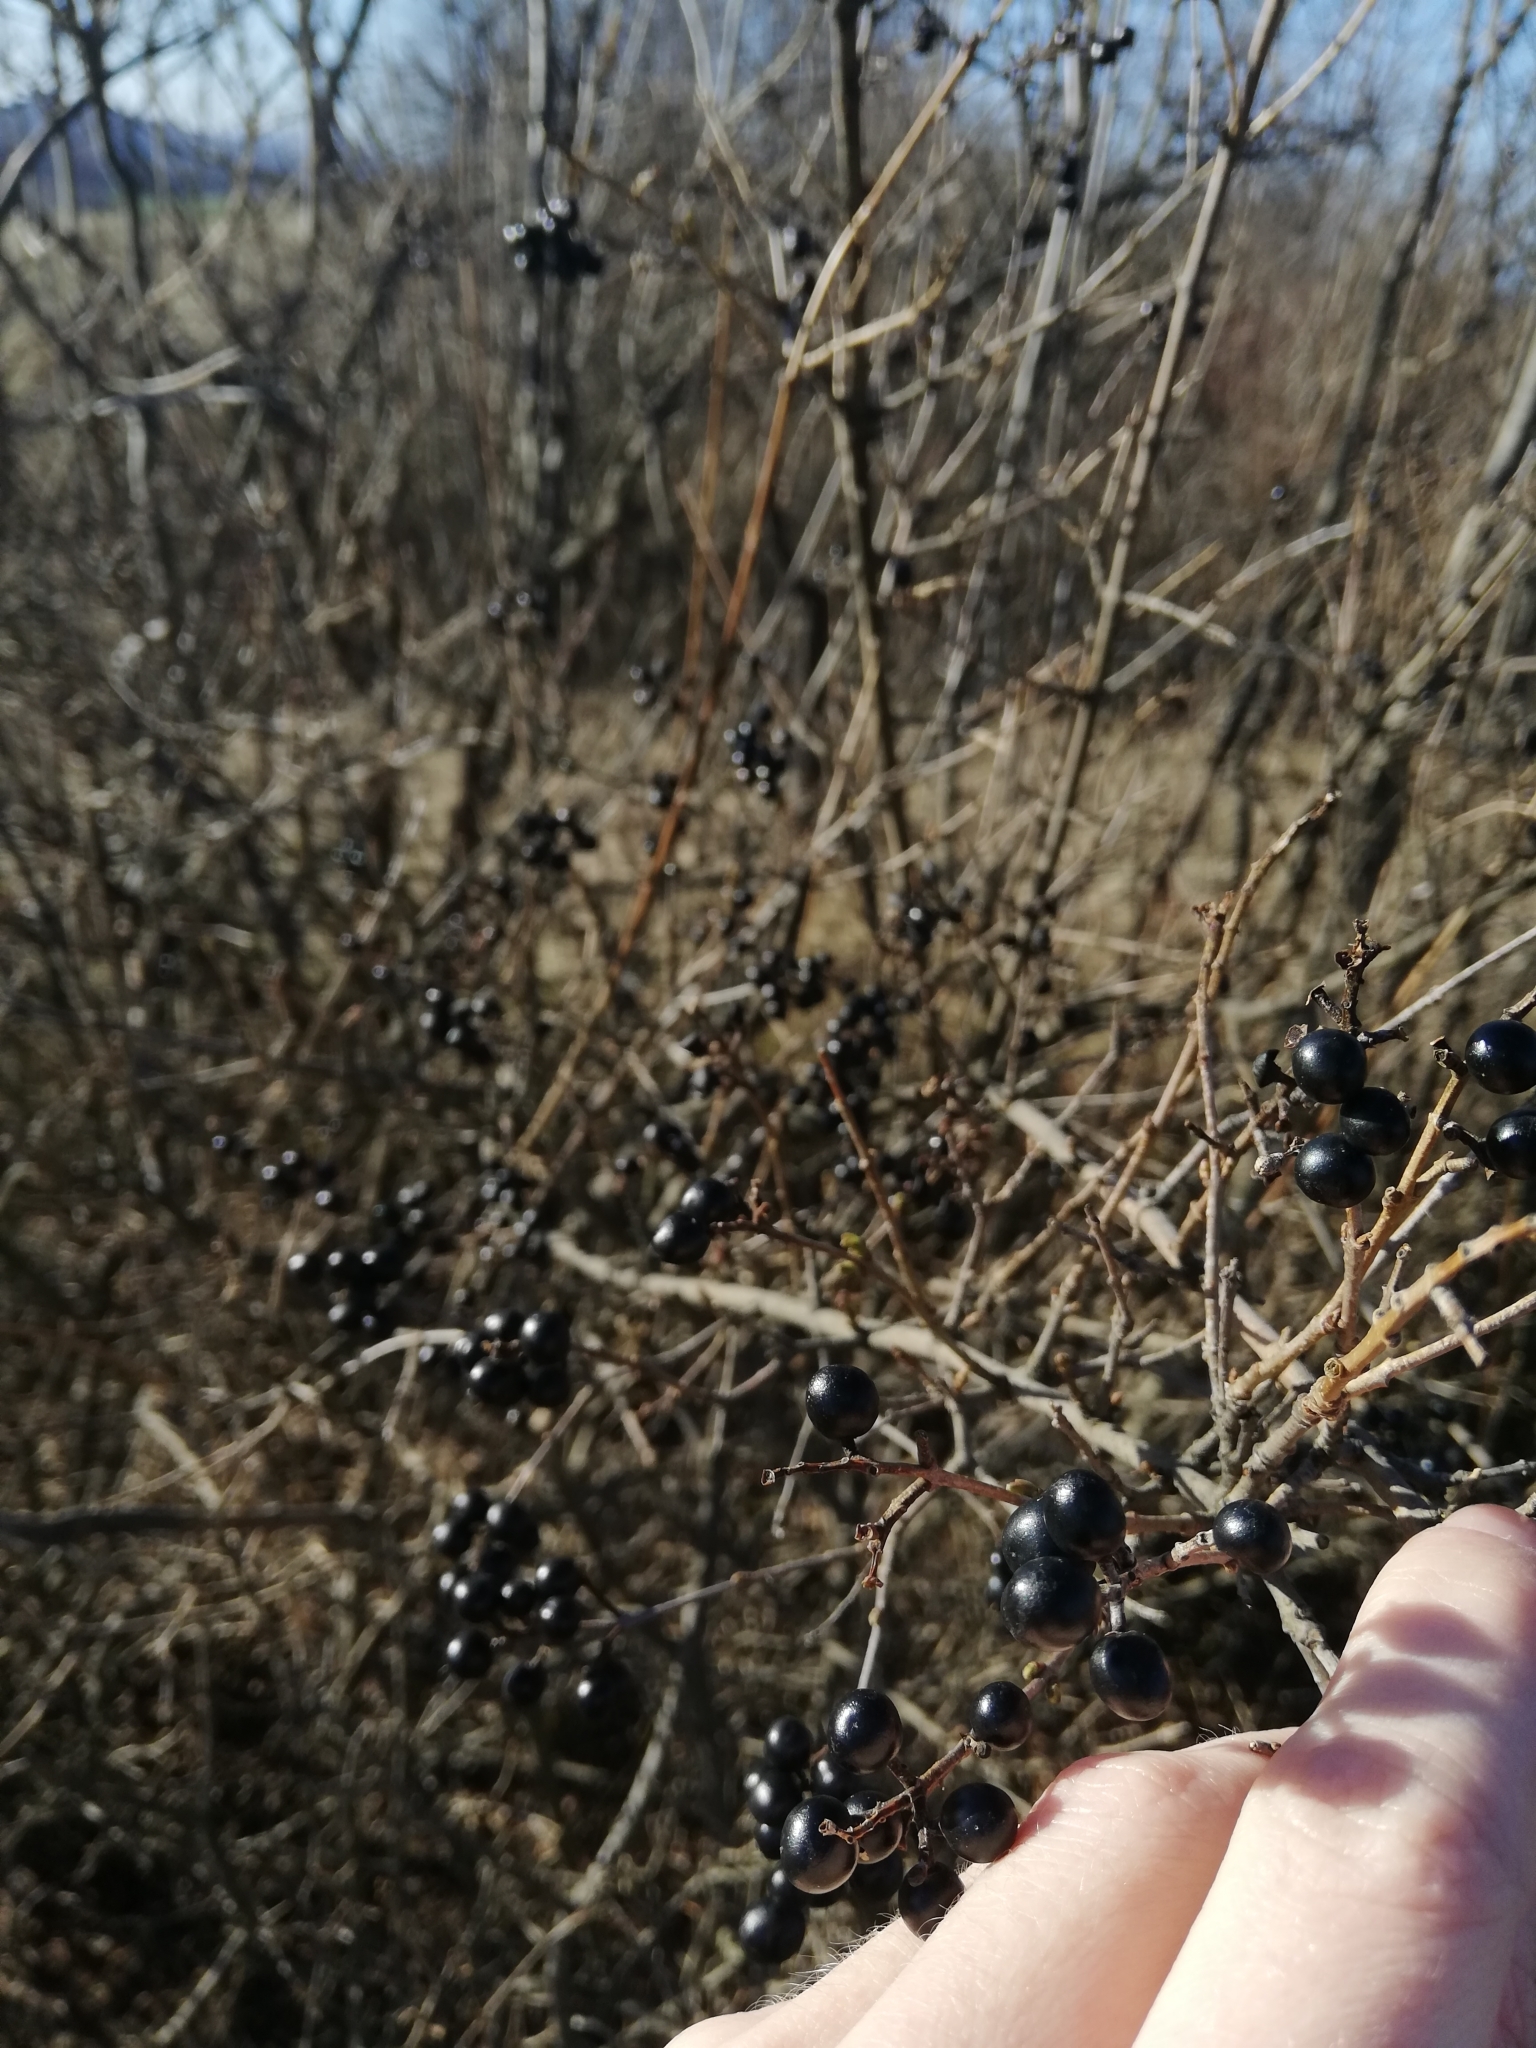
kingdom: Plantae
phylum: Tracheophyta
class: Magnoliopsida
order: Lamiales
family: Oleaceae
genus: Ligustrum
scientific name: Ligustrum vulgare
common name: Wild privet
